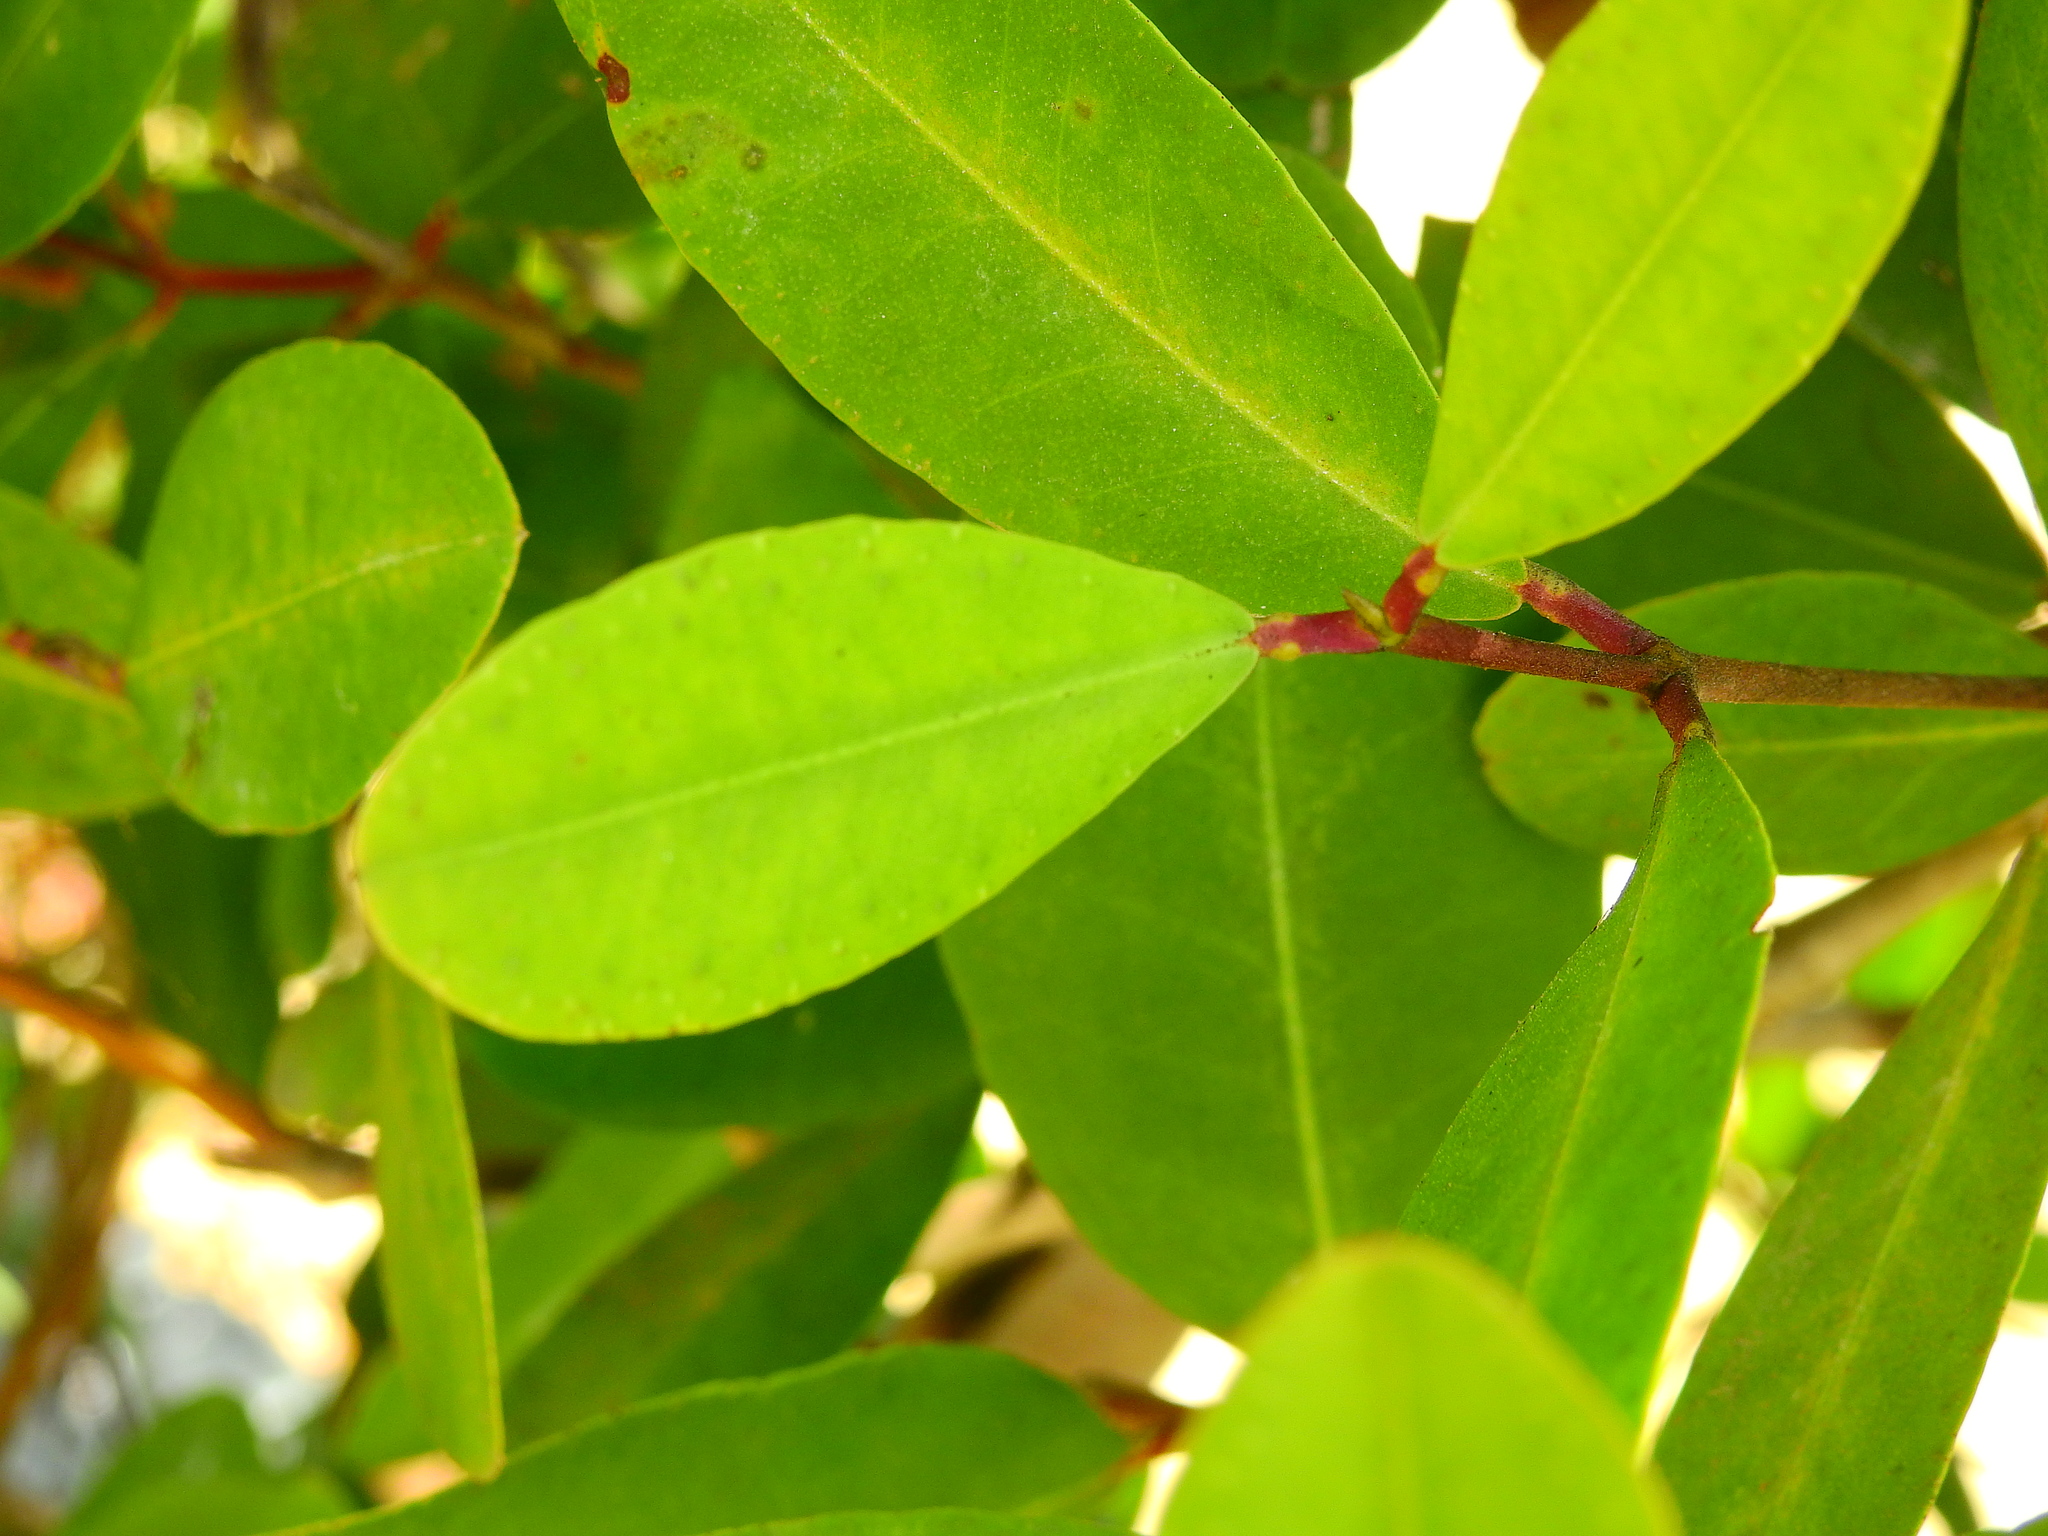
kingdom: Plantae
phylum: Tracheophyta
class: Magnoliopsida
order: Myrtales
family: Combretaceae
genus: Laguncularia
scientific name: Laguncularia racemosa
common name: White mangrove
